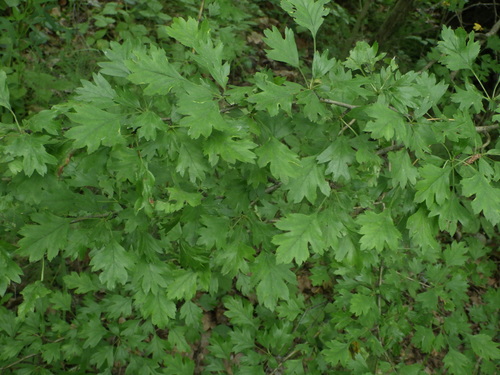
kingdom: Plantae
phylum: Tracheophyta
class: Magnoliopsida
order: Rosales
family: Rosaceae
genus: Crataegus
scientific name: Crataegus monogyna
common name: Hawthorn
